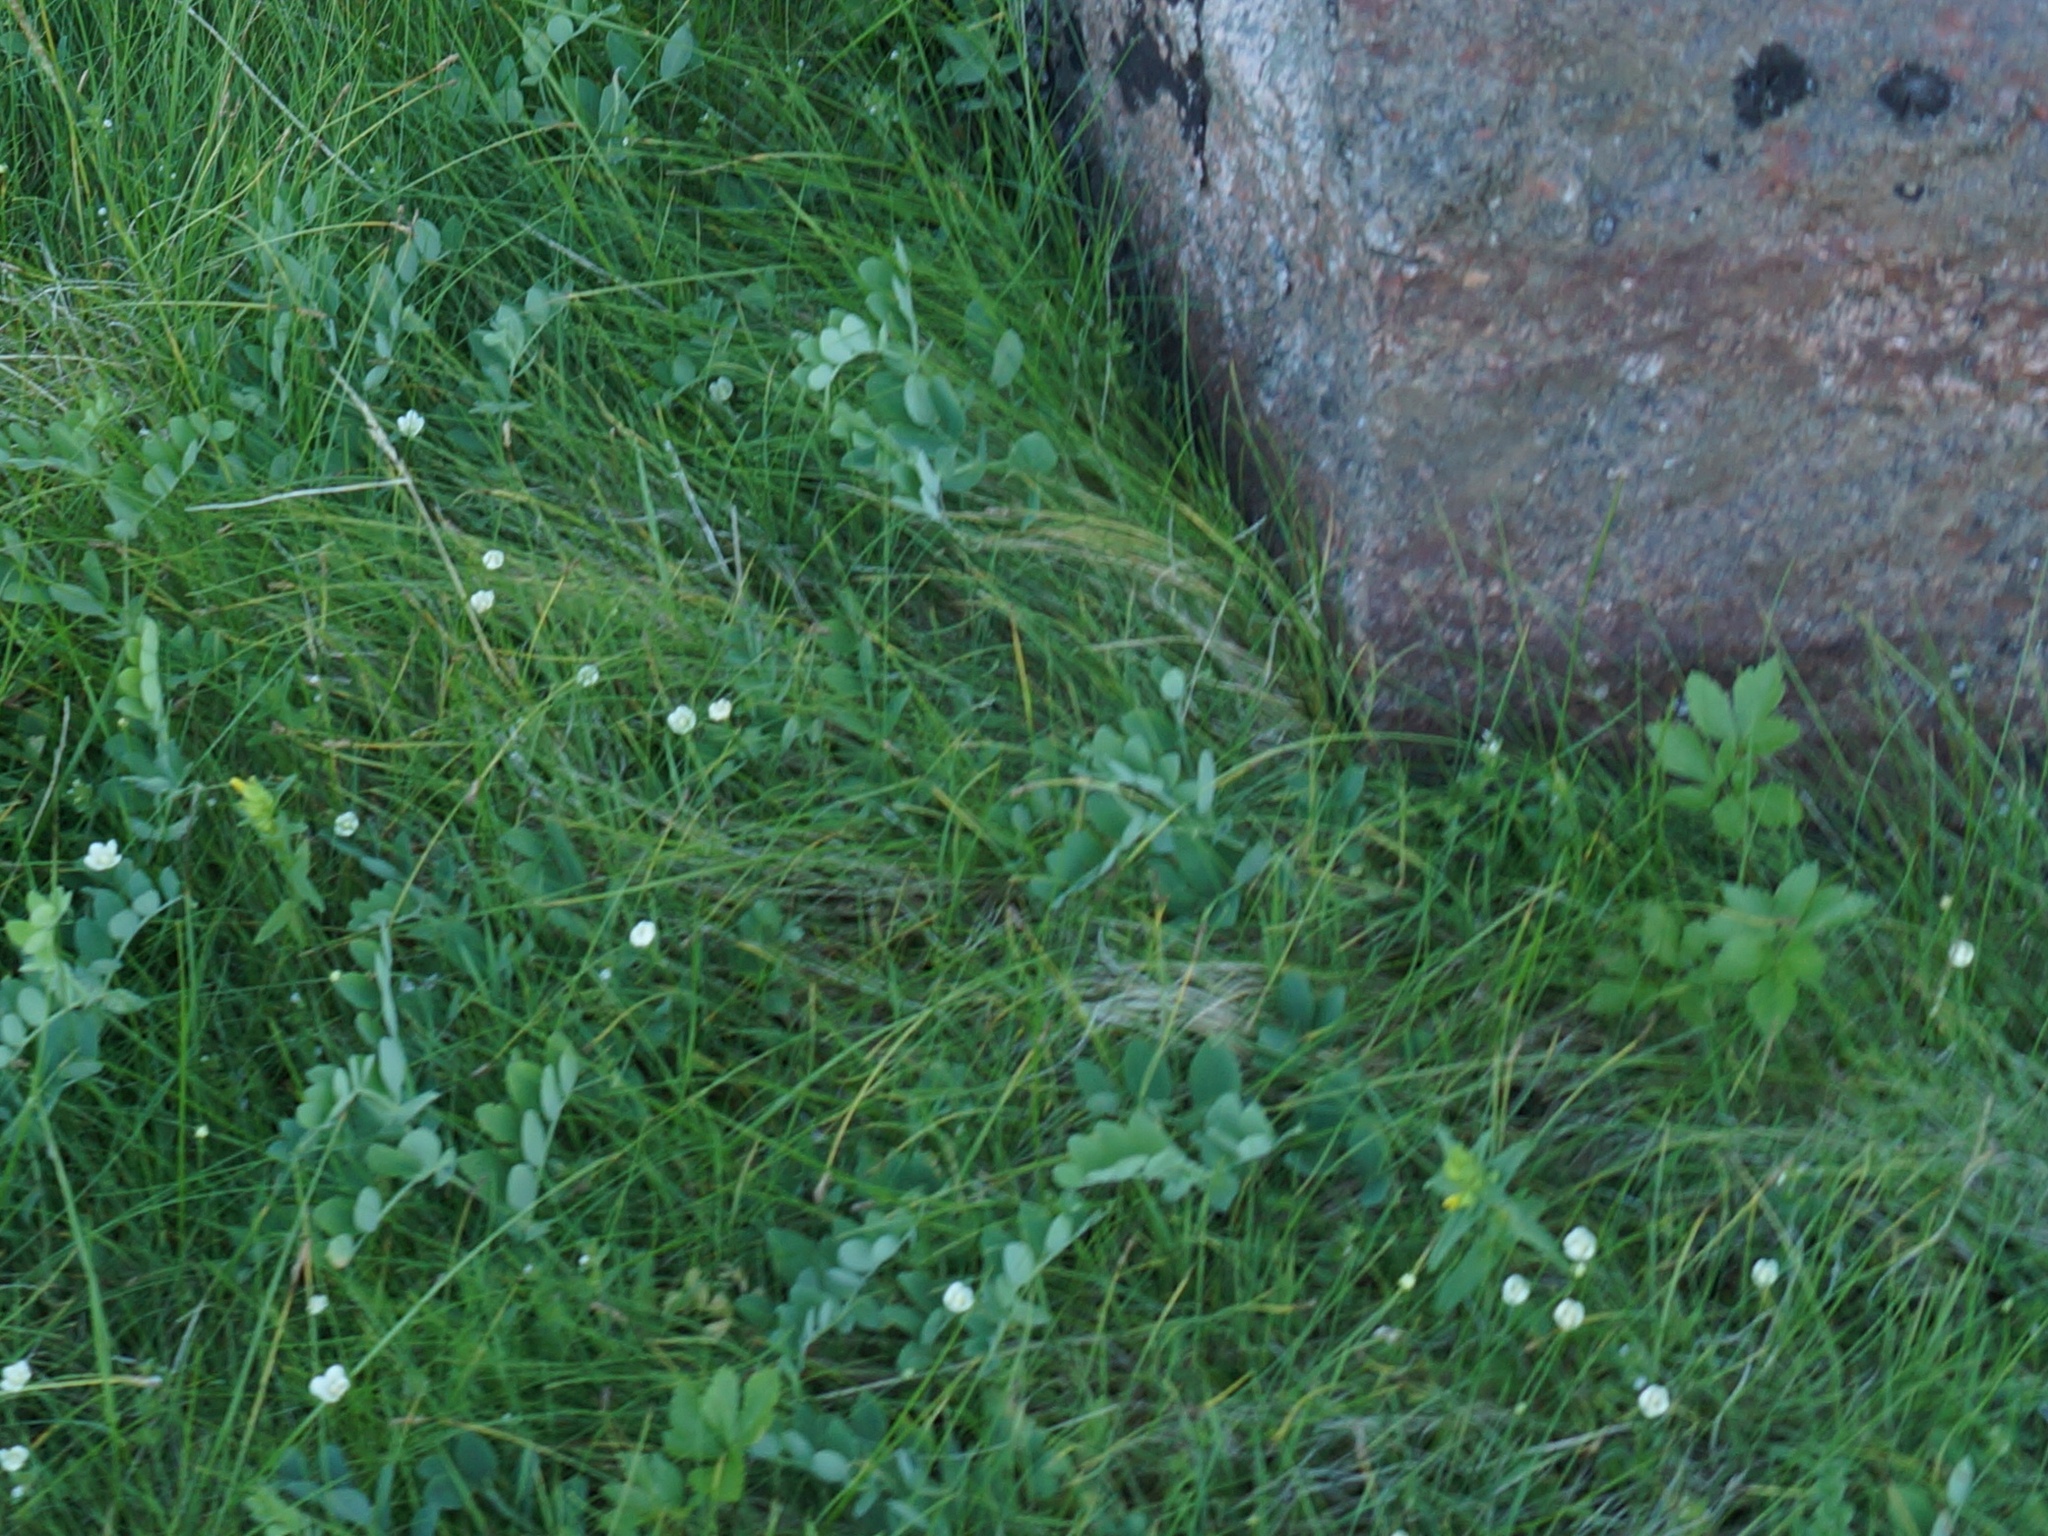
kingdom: Plantae
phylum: Tracheophyta
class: Magnoliopsida
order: Celastrales
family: Parnassiaceae
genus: Parnassia
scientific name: Parnassia palustris
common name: Grass-of-parnassus
